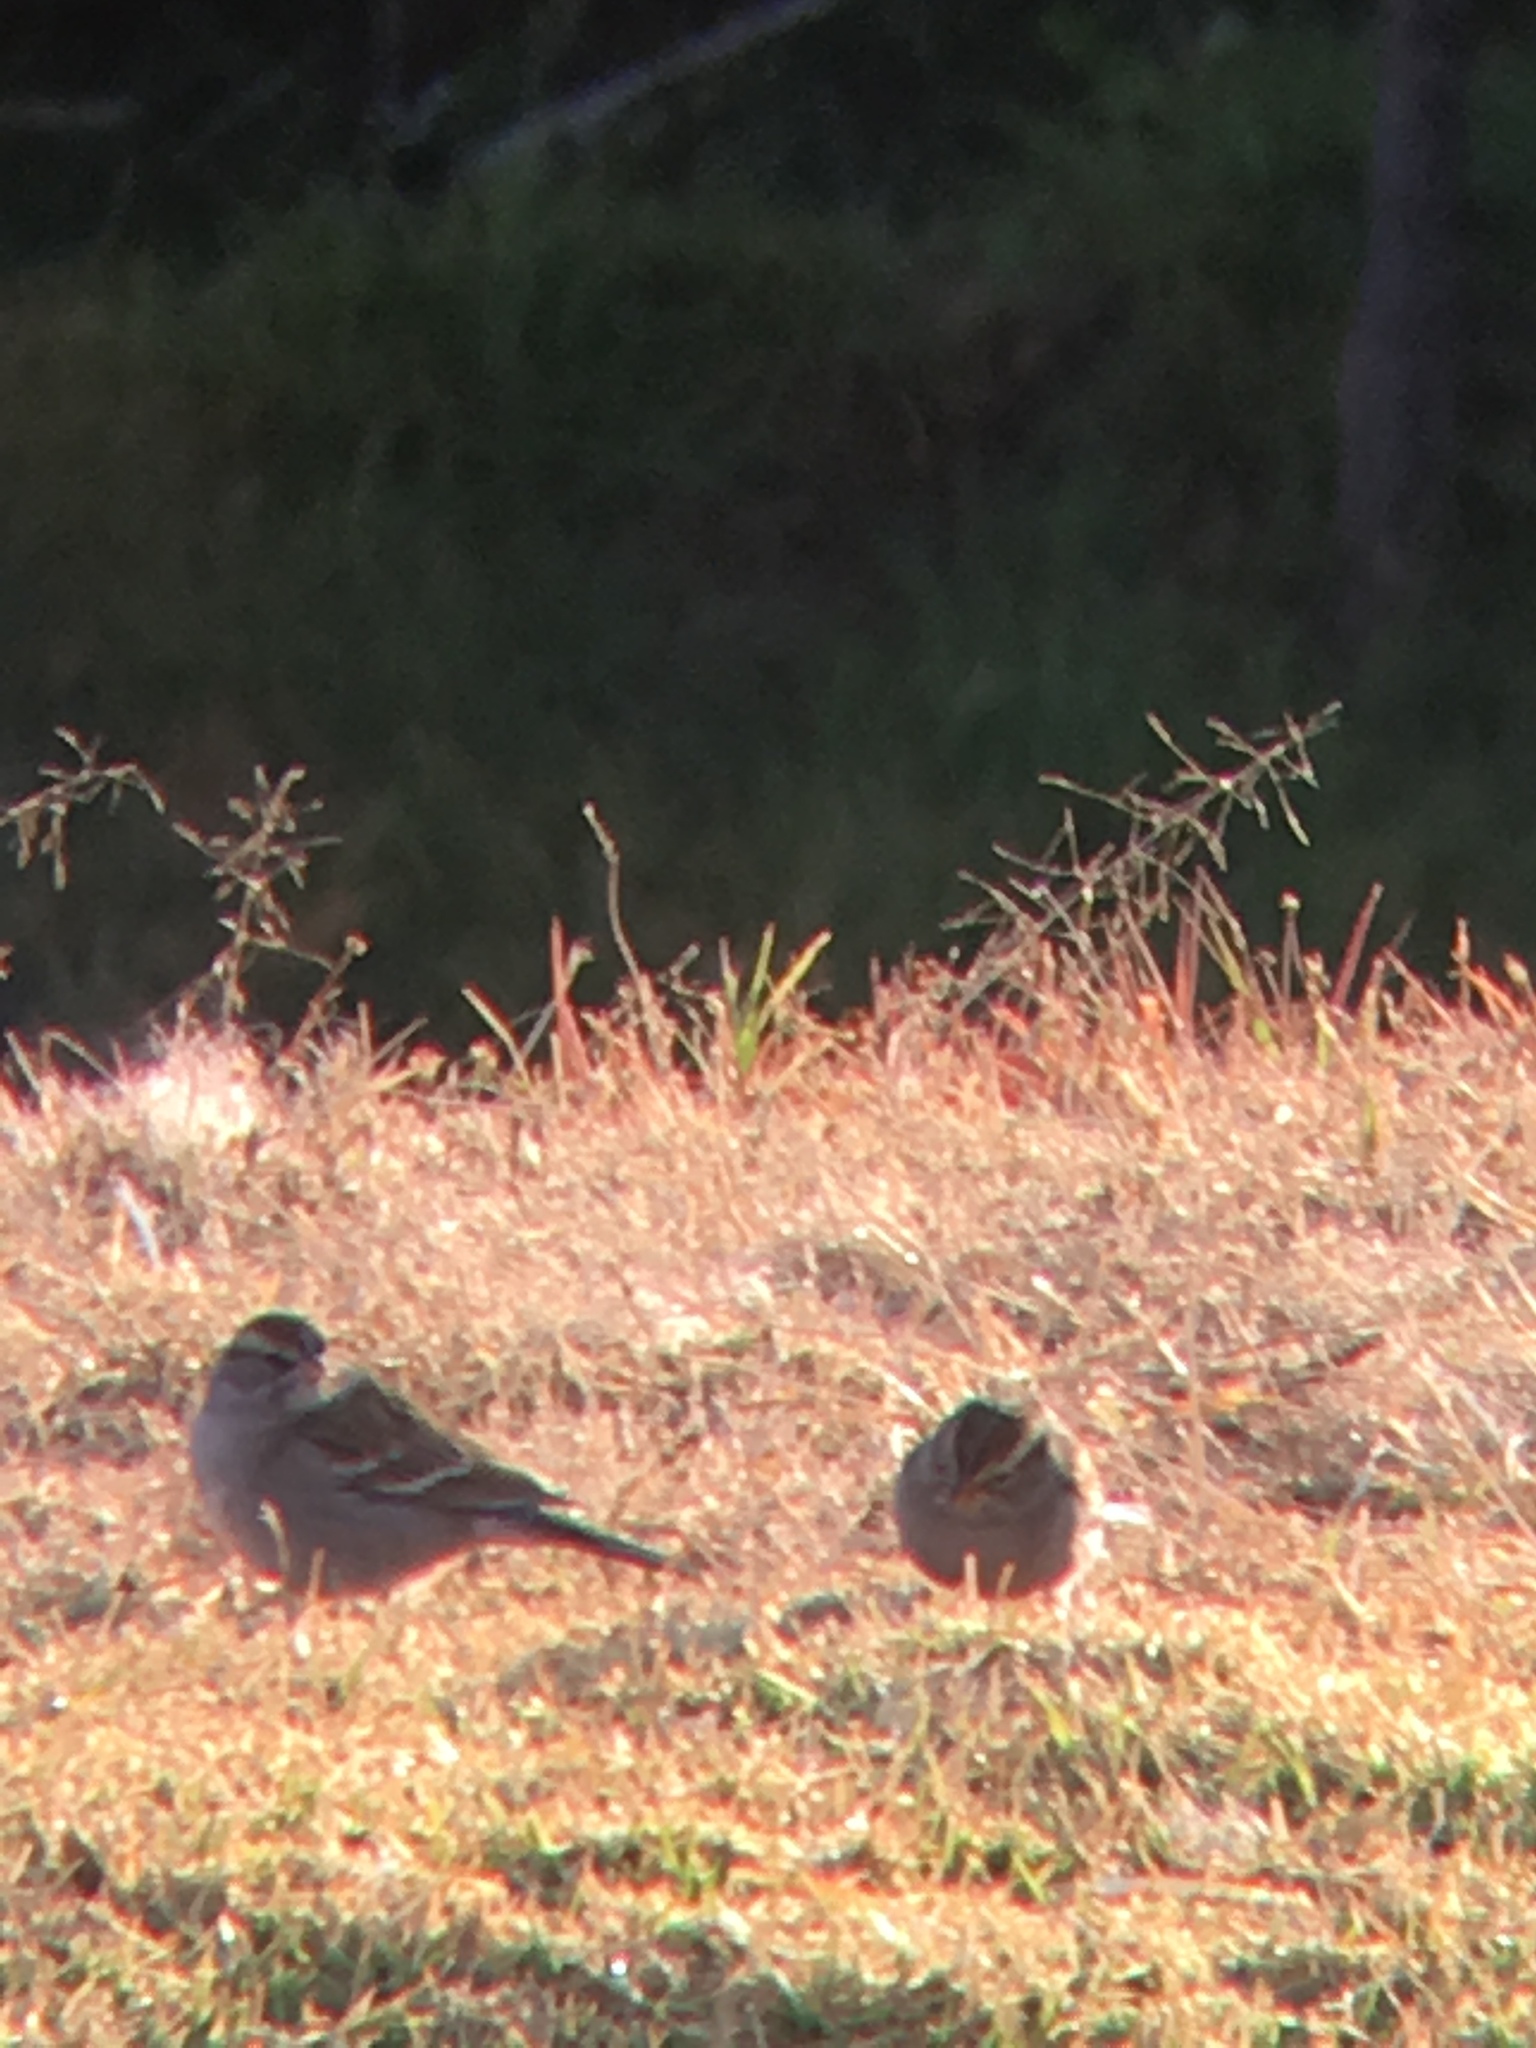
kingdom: Animalia
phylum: Chordata
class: Aves
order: Passeriformes
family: Passerellidae
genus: Spizella
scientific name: Spizella passerina
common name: Chipping sparrow
